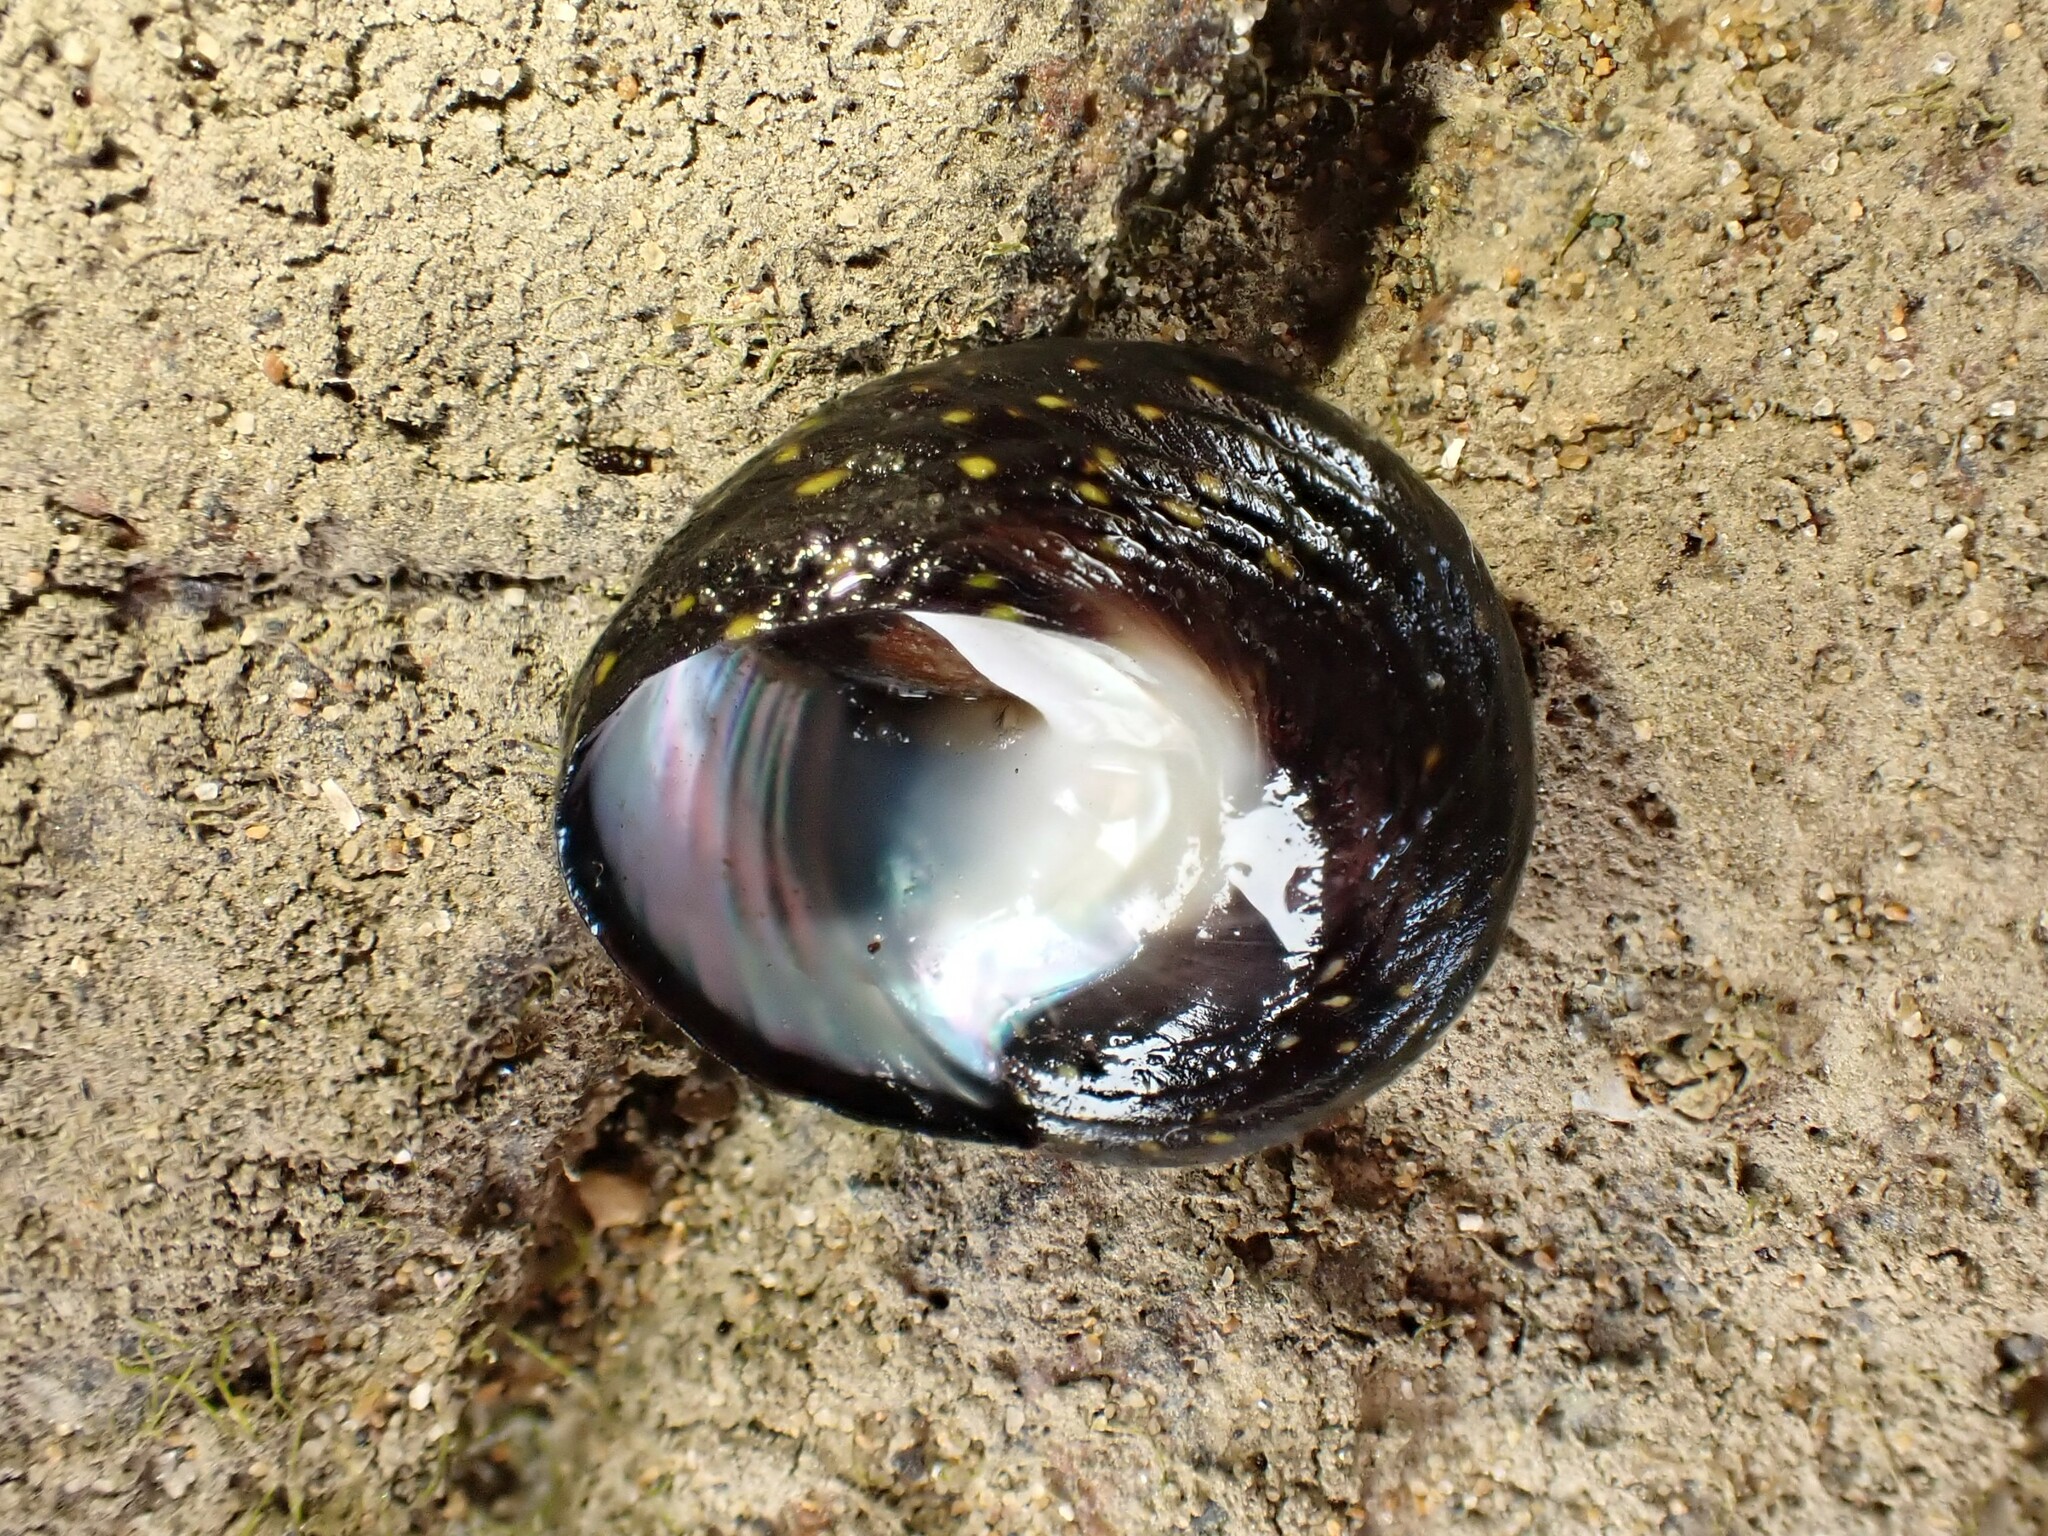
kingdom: Animalia
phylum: Mollusca
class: Gastropoda
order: Trochida
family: Trochidae
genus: Diloma
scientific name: Diloma aridum
